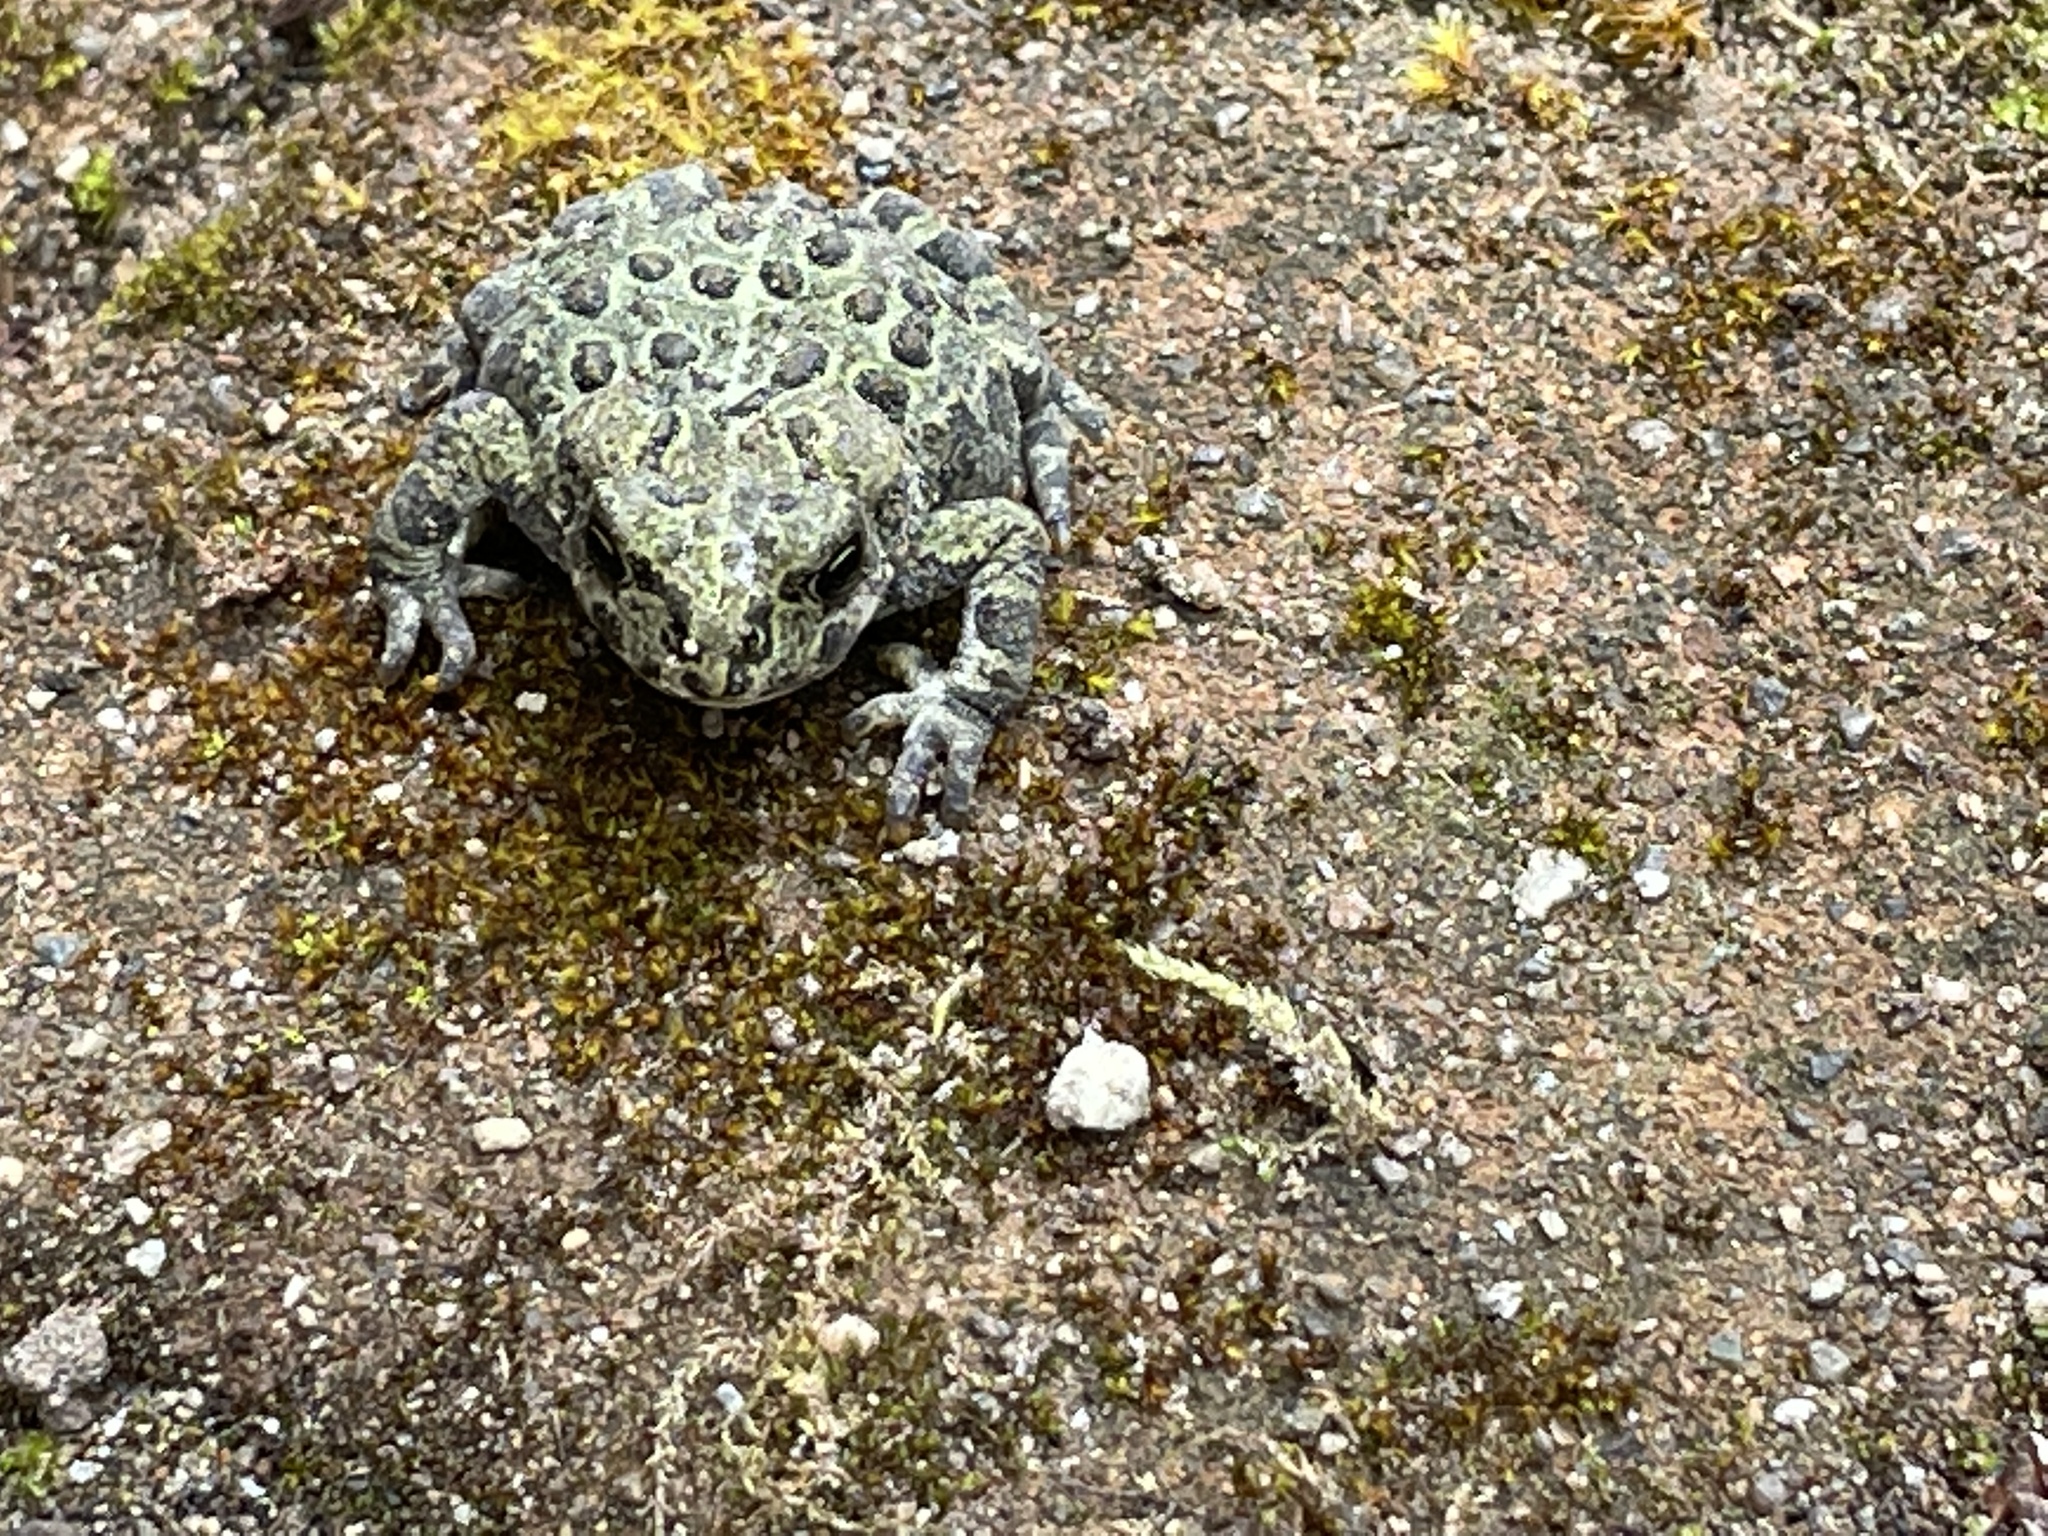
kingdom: Animalia
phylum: Chordata
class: Amphibia
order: Anura
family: Bufonidae
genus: Anaxyrus
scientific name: Anaxyrus boreas
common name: Western toad
